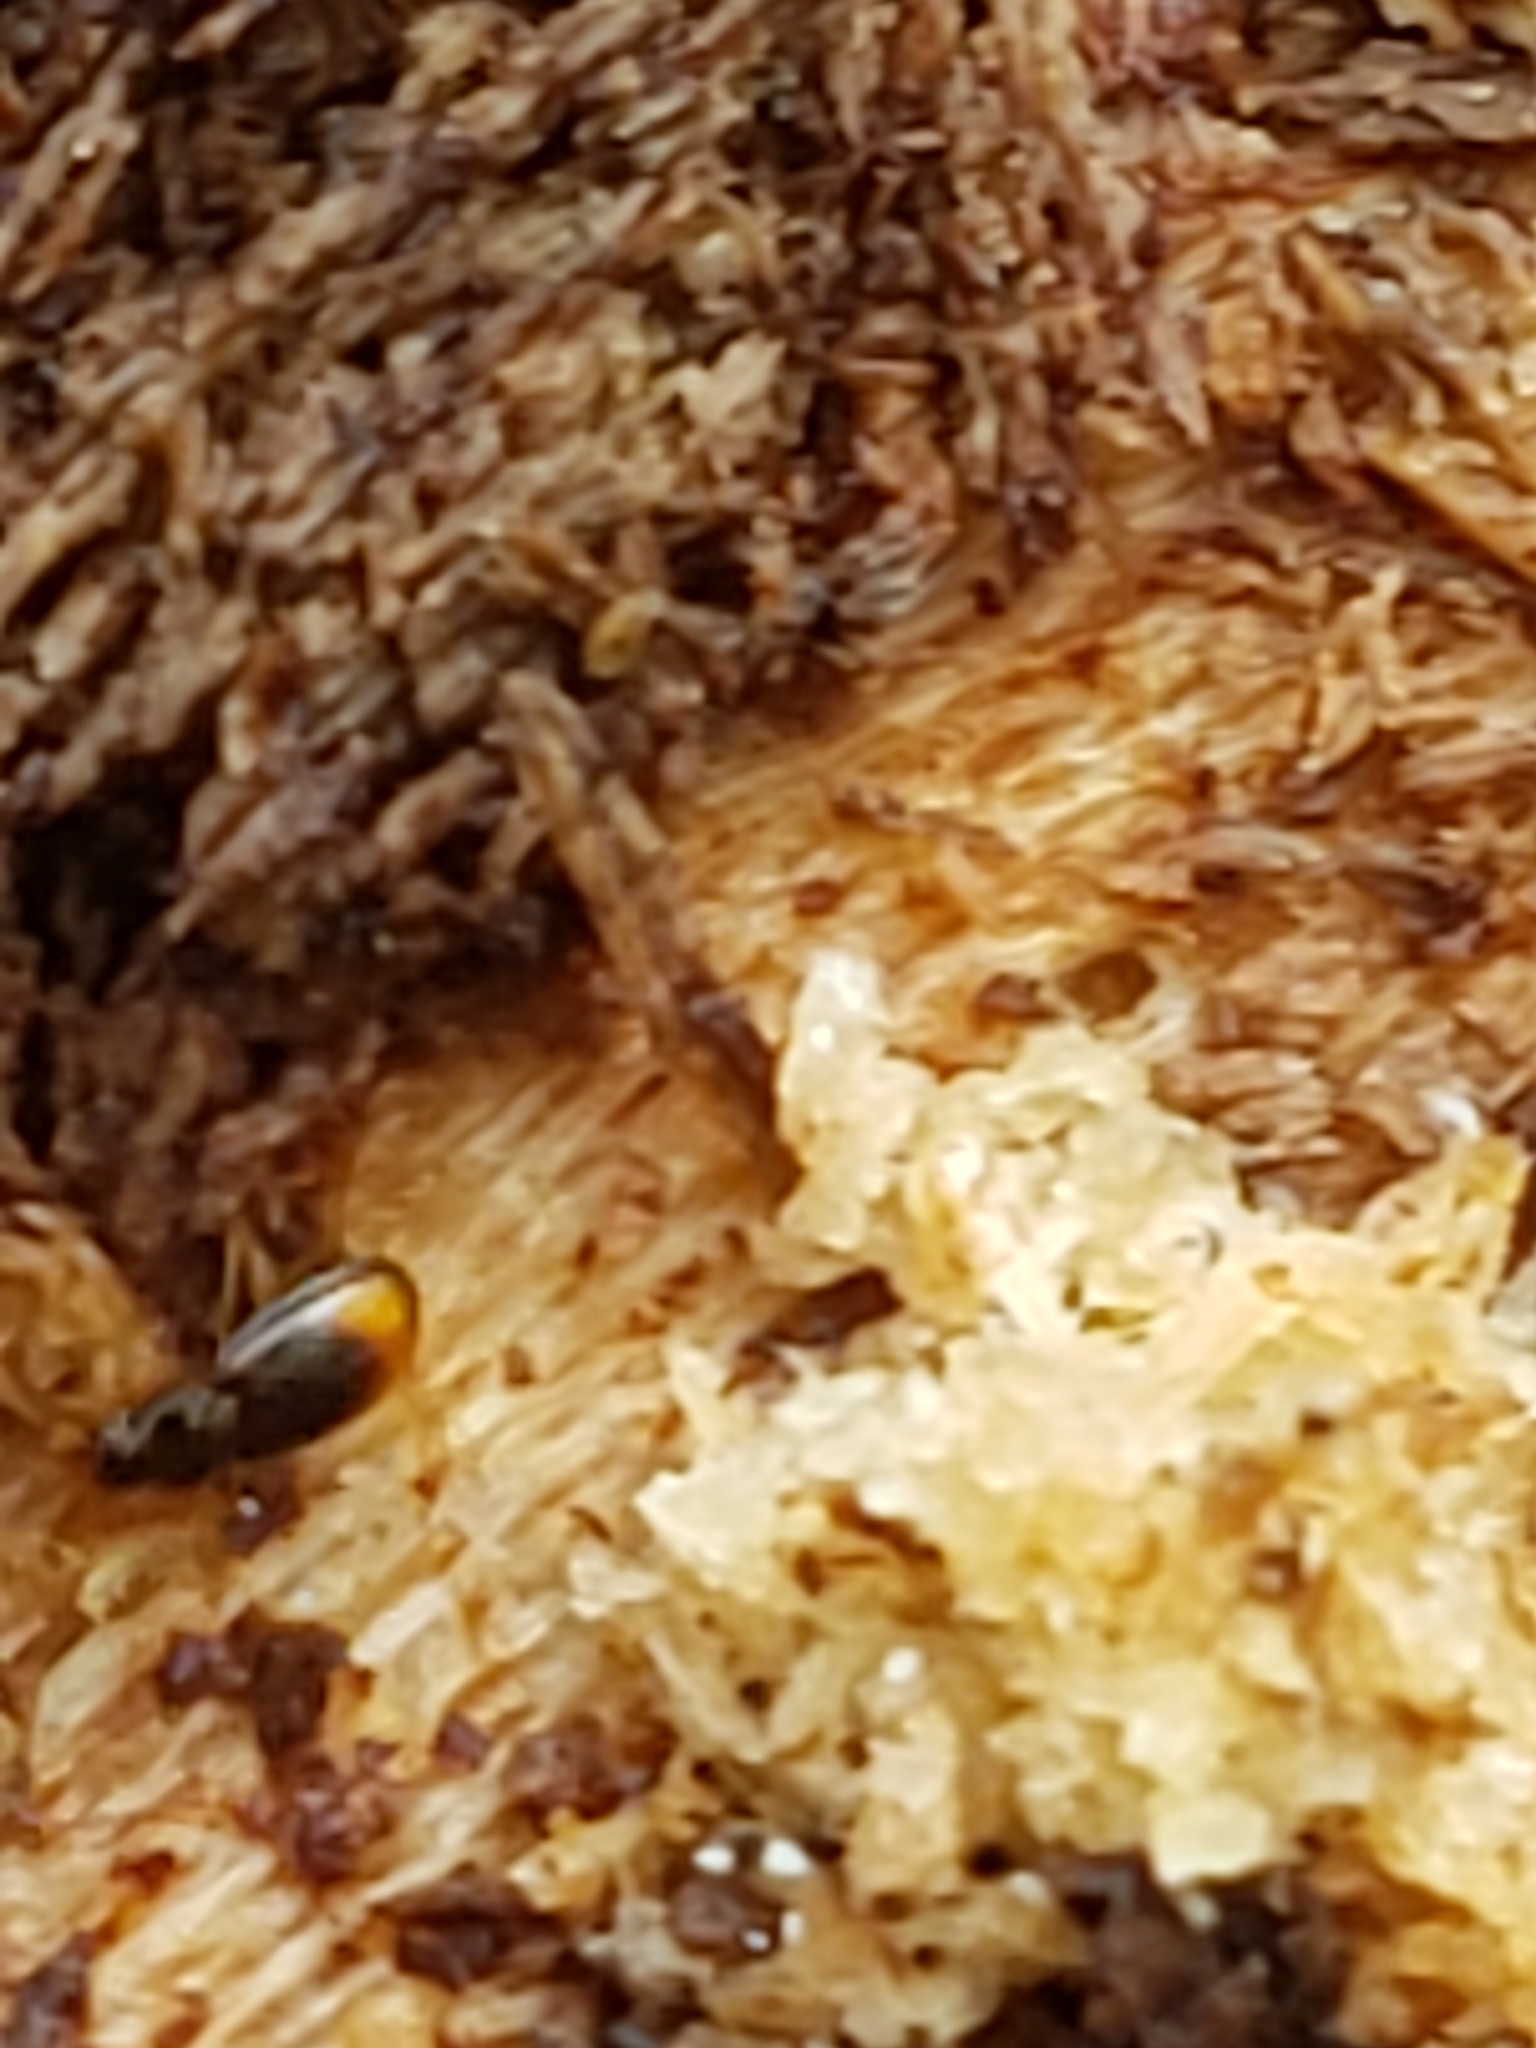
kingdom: Animalia
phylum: Arthropoda
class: Insecta
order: Coleoptera
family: Carabidae
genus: Mioptachys
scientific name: Mioptachys flavicauda
